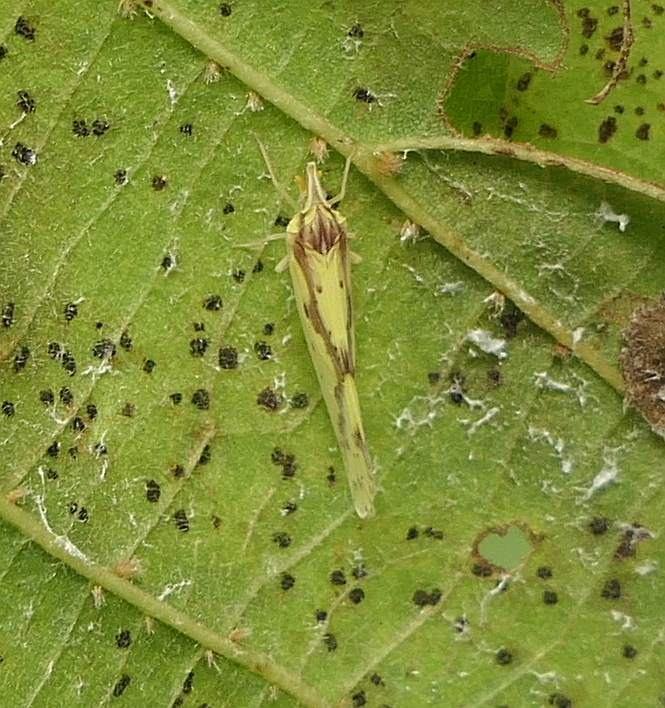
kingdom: Animalia
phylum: Arthropoda
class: Insecta
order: Hemiptera
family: Derbidae
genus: Otiocerus
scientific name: Otiocerus wolfii
